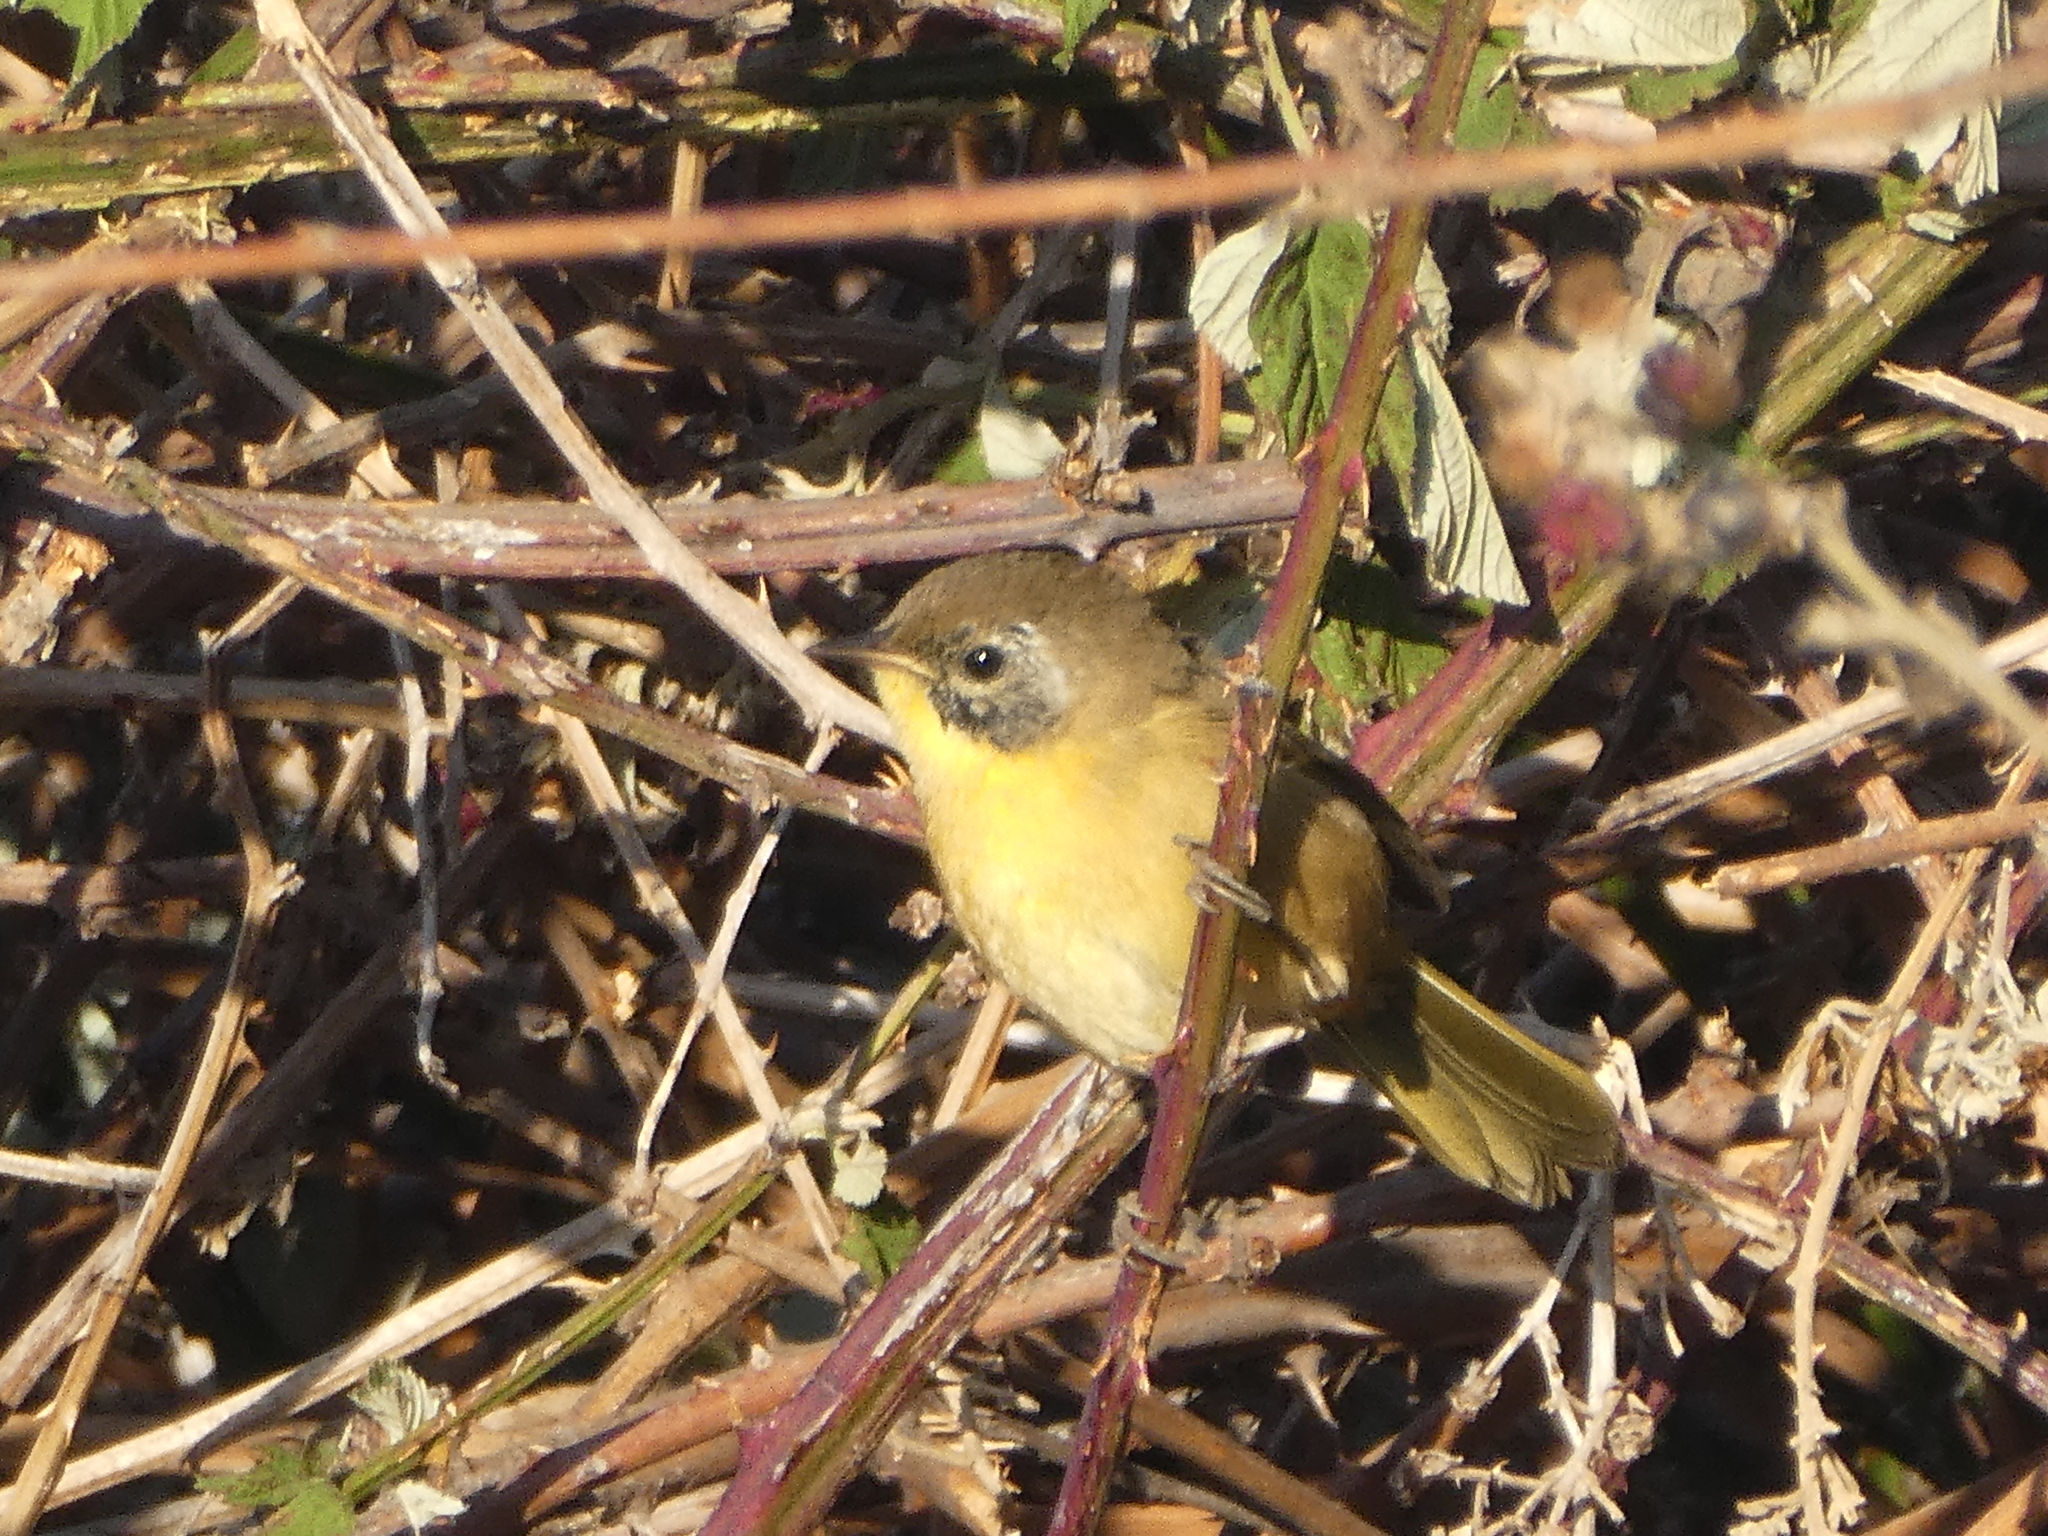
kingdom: Animalia
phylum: Chordata
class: Aves
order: Passeriformes
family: Parulidae
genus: Geothlypis
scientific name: Geothlypis trichas
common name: Common yellowthroat
